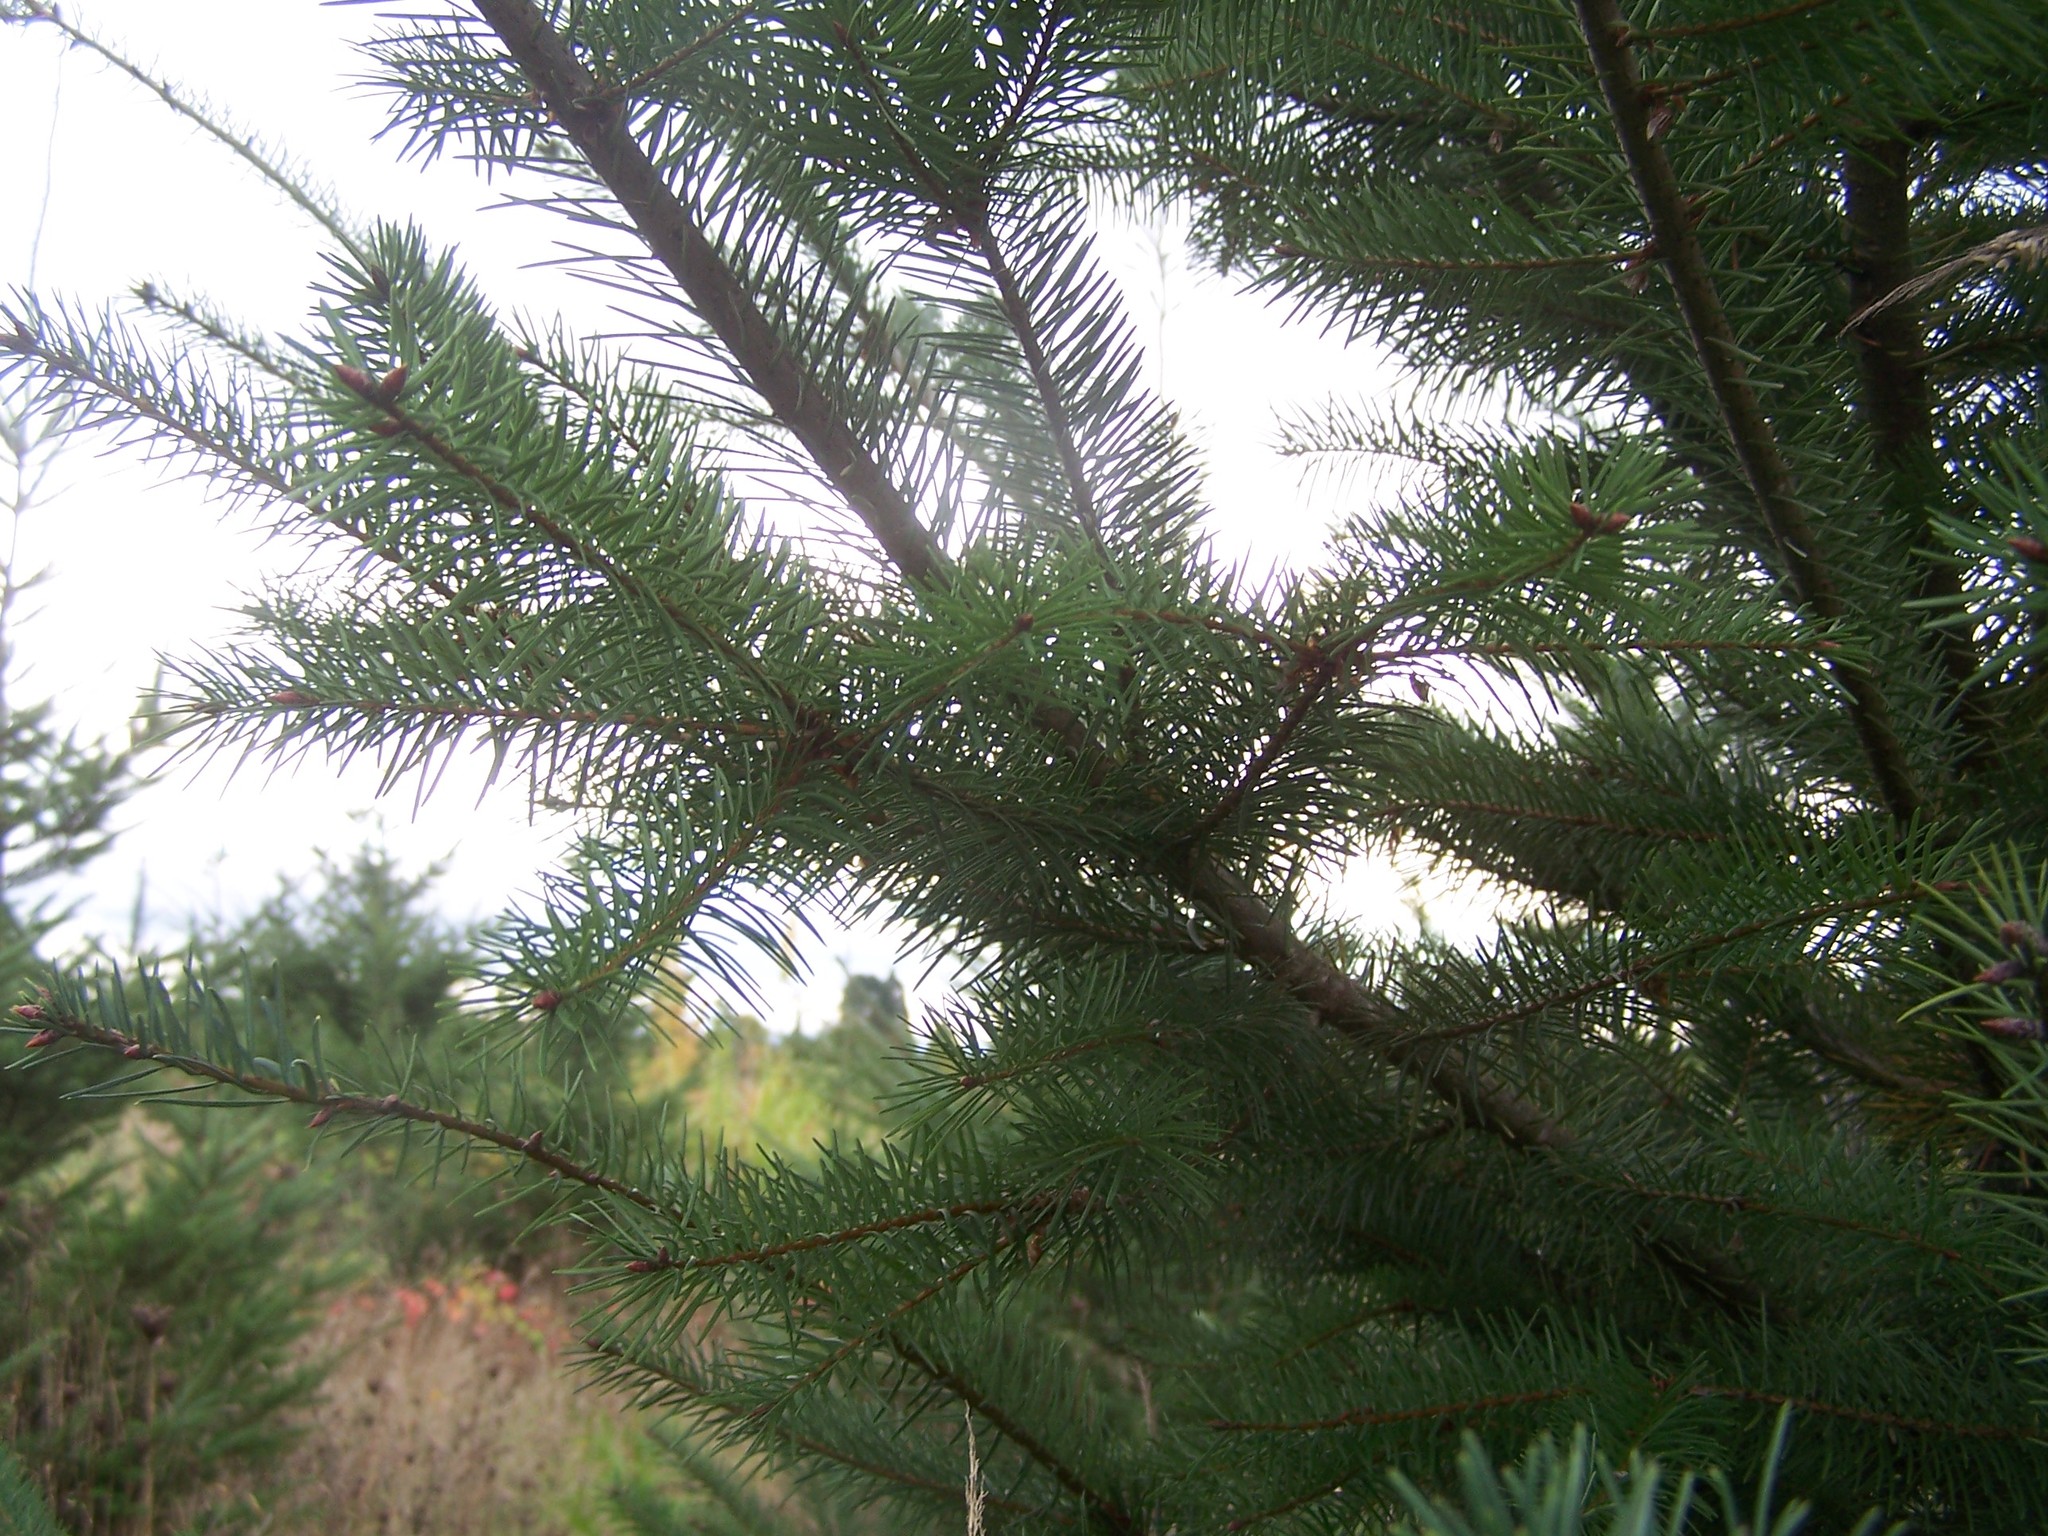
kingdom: Plantae
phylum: Tracheophyta
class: Pinopsida
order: Pinales
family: Pinaceae
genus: Pseudotsuga
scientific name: Pseudotsuga menziesii
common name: Douglas fir
